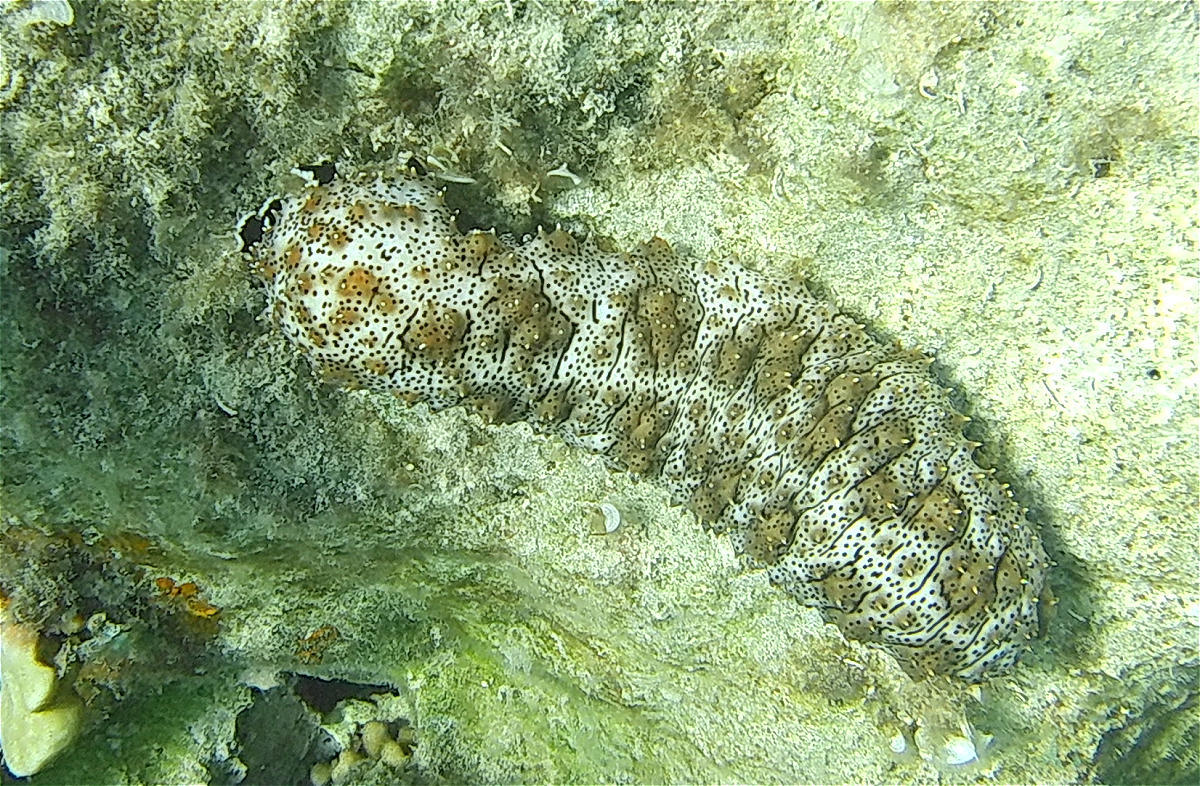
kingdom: Animalia
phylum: Echinodermata
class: Holothuroidea
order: Holothuriida
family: Holothuriidae
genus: Pearsonothuria
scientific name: Pearsonothuria graeffei
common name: Blackspotted sea cucumber
